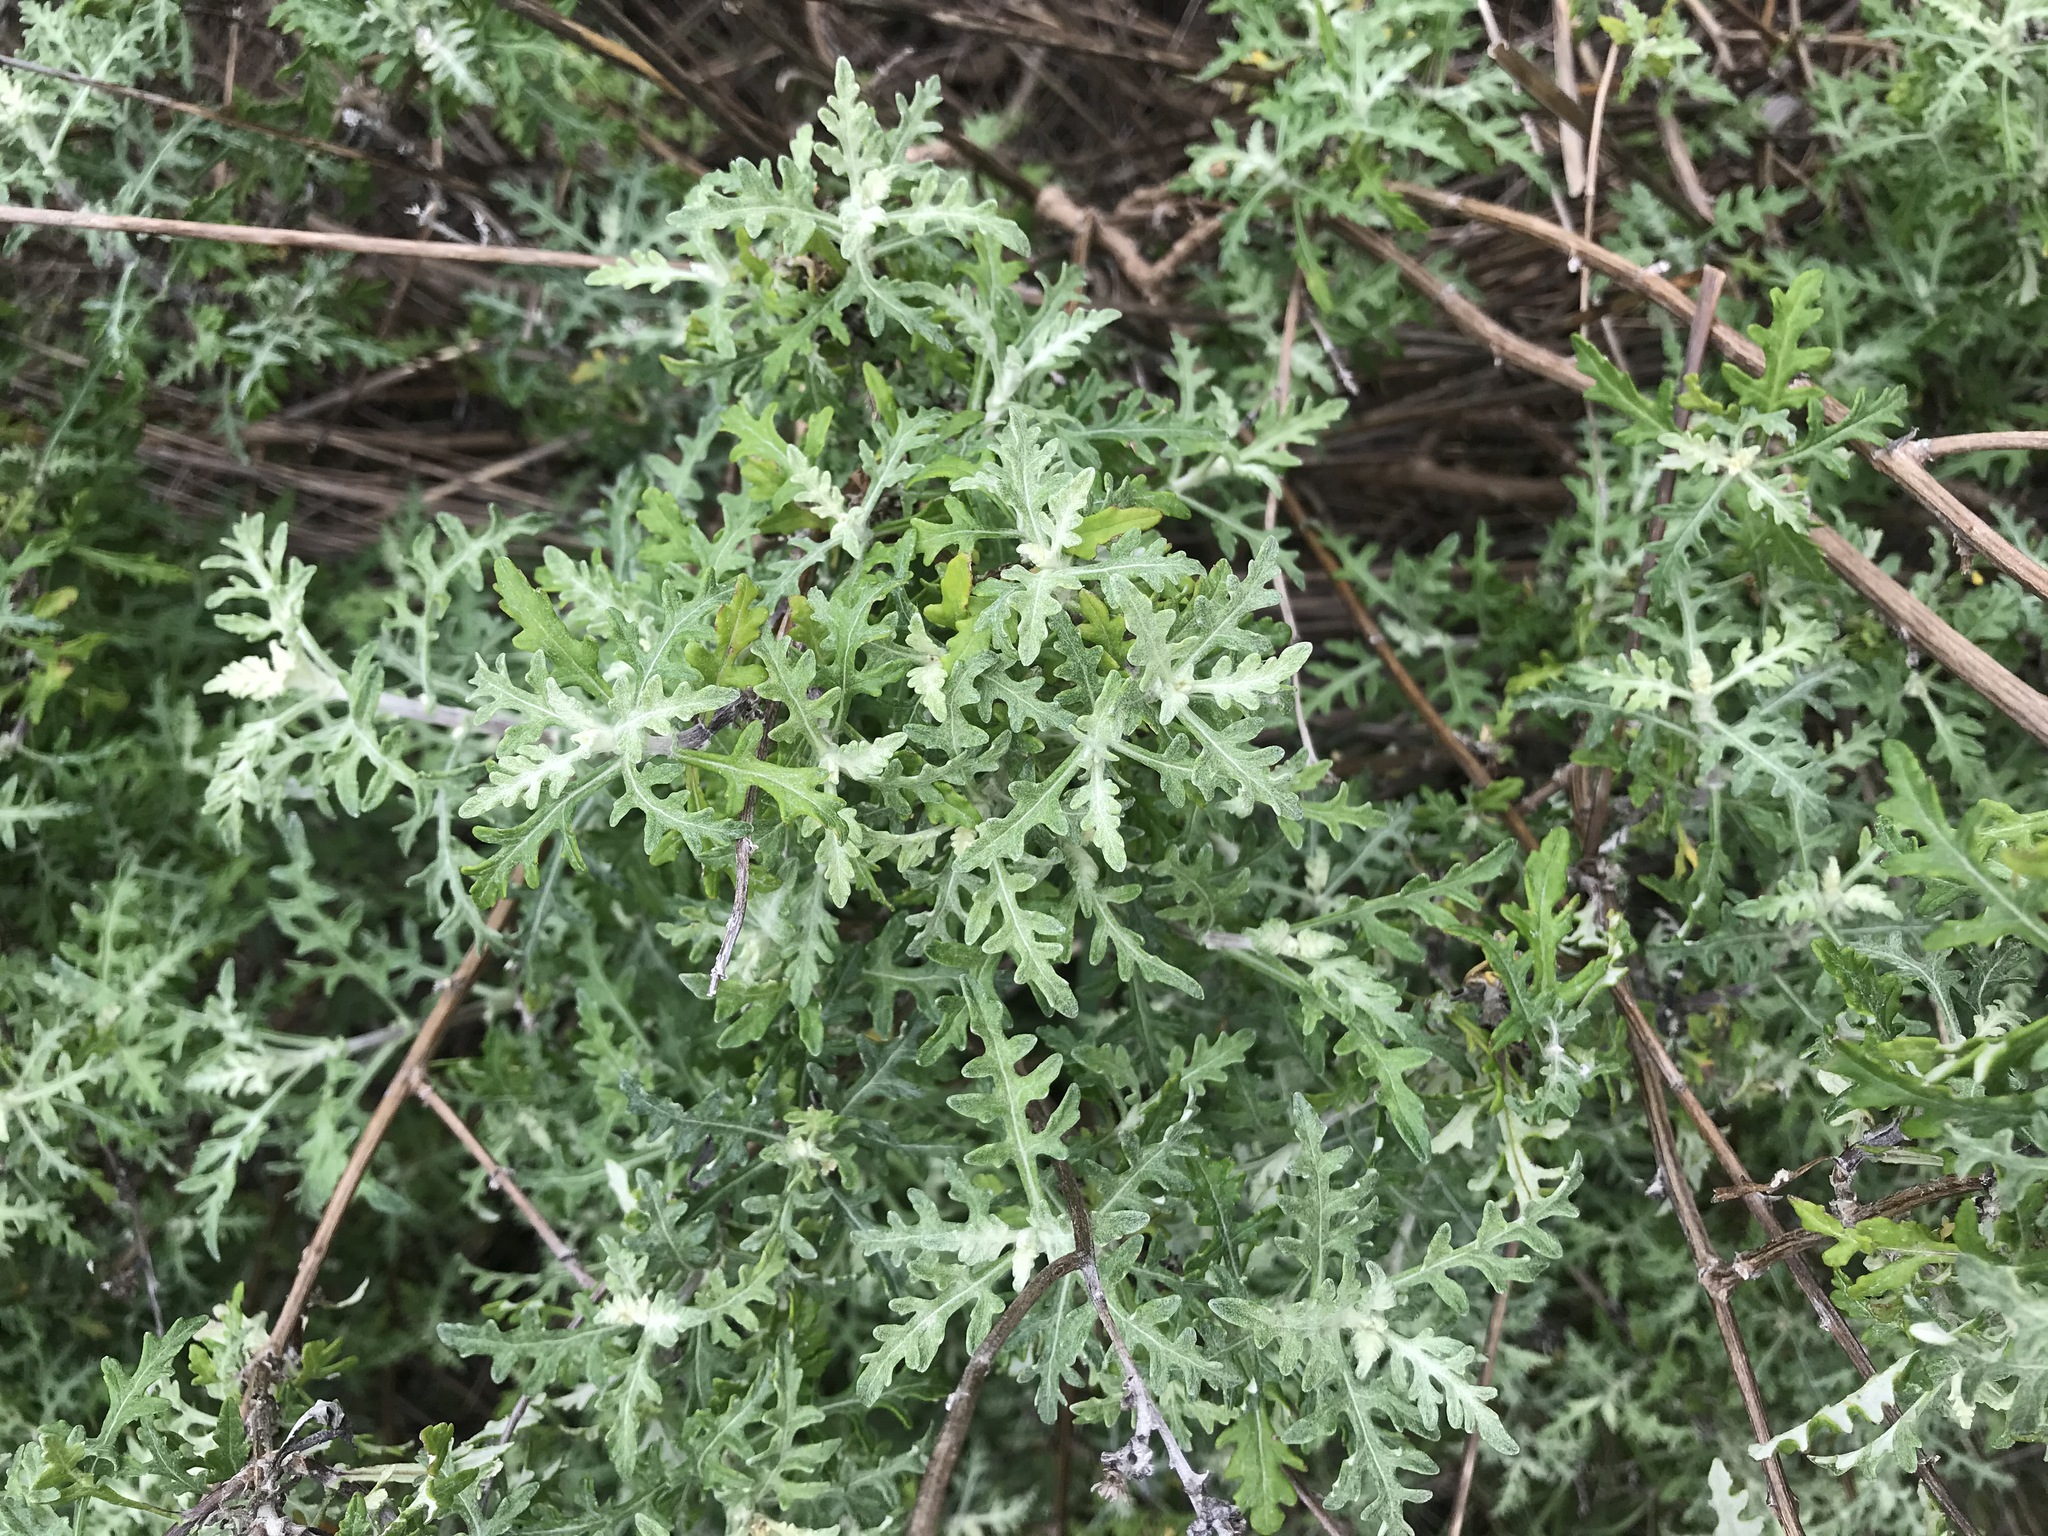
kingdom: Plantae
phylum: Tracheophyta
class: Magnoliopsida
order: Asterales
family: Asteraceae
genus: Eriophyllum
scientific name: Eriophyllum staechadifolium
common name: Lizardtail
